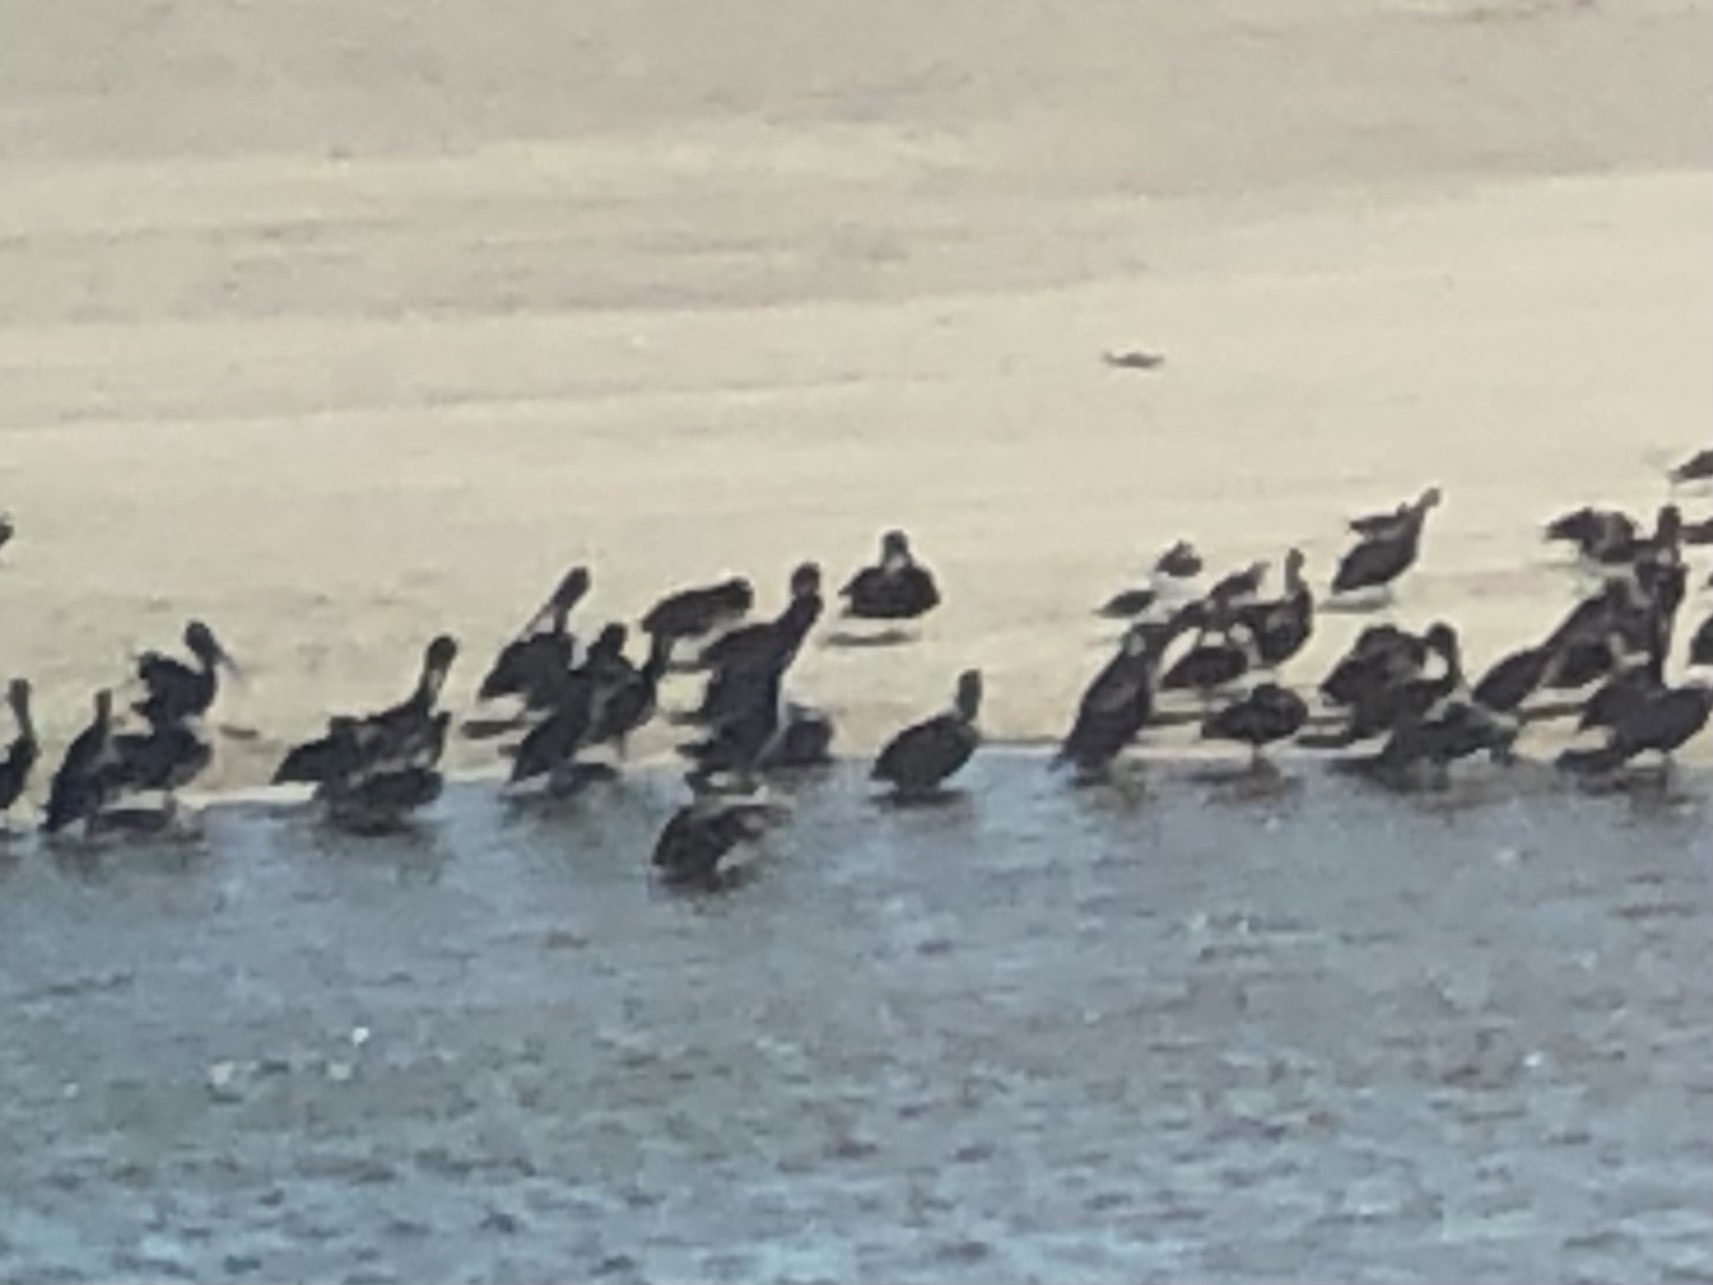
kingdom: Animalia
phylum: Chordata
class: Aves
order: Pelecaniformes
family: Pelecanidae
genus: Pelecanus
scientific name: Pelecanus occidentalis
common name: Brown pelican
